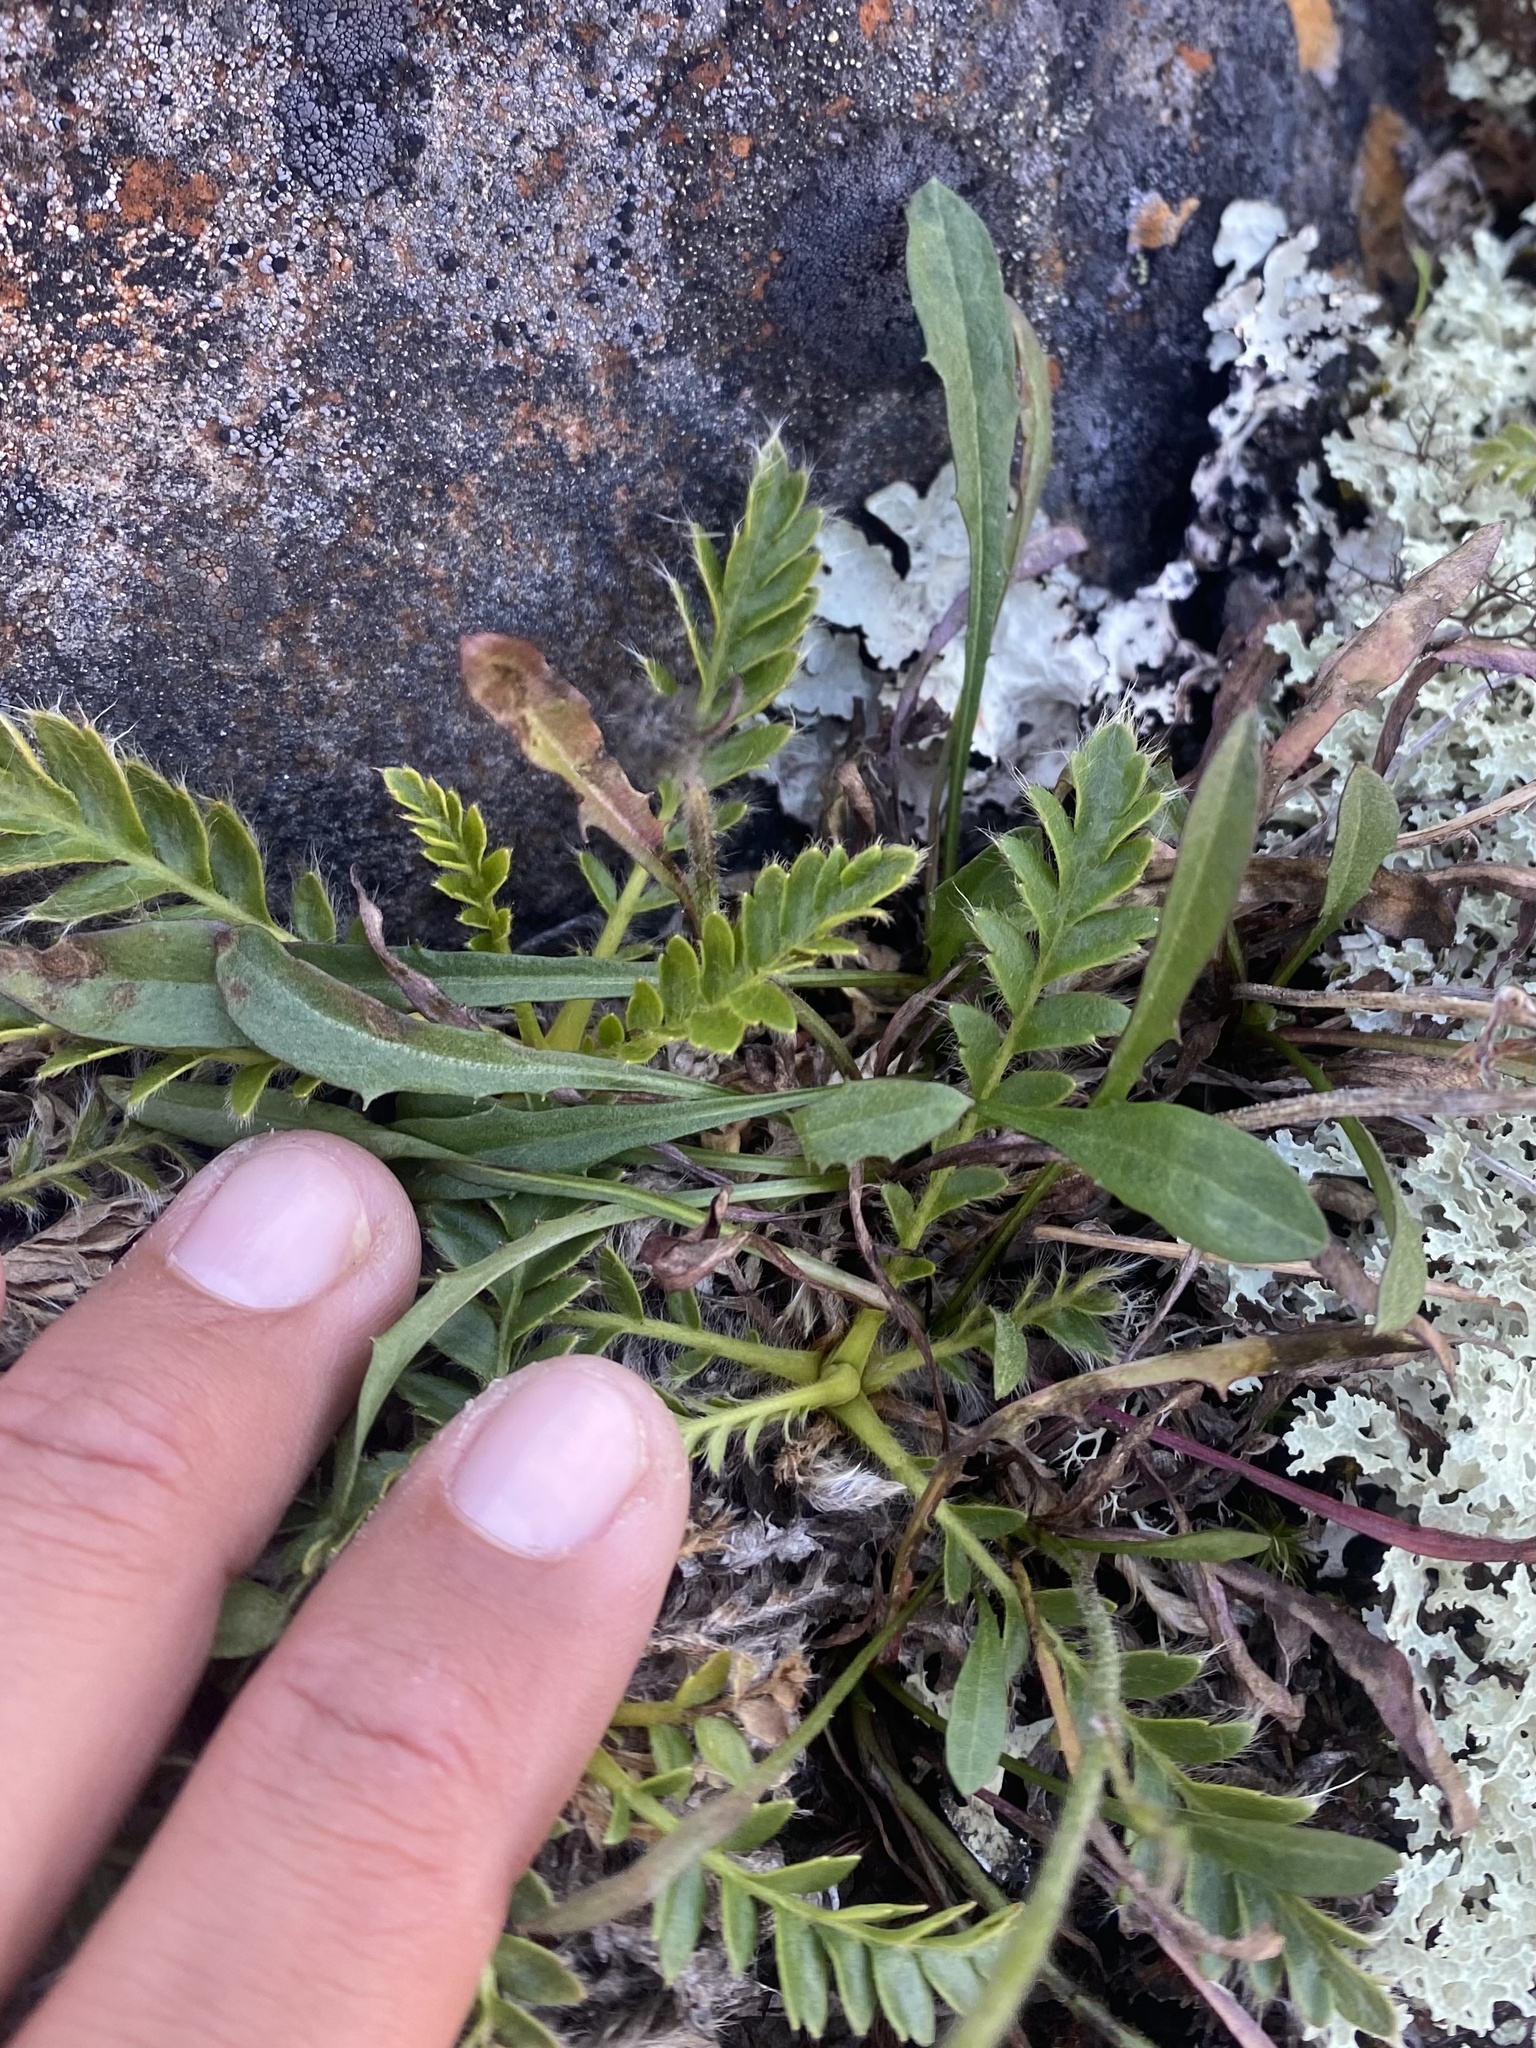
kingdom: Plantae
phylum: Tracheophyta
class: Magnoliopsida
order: Asterales
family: Asteraceae
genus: Crepis
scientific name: Crepis chrysantha
